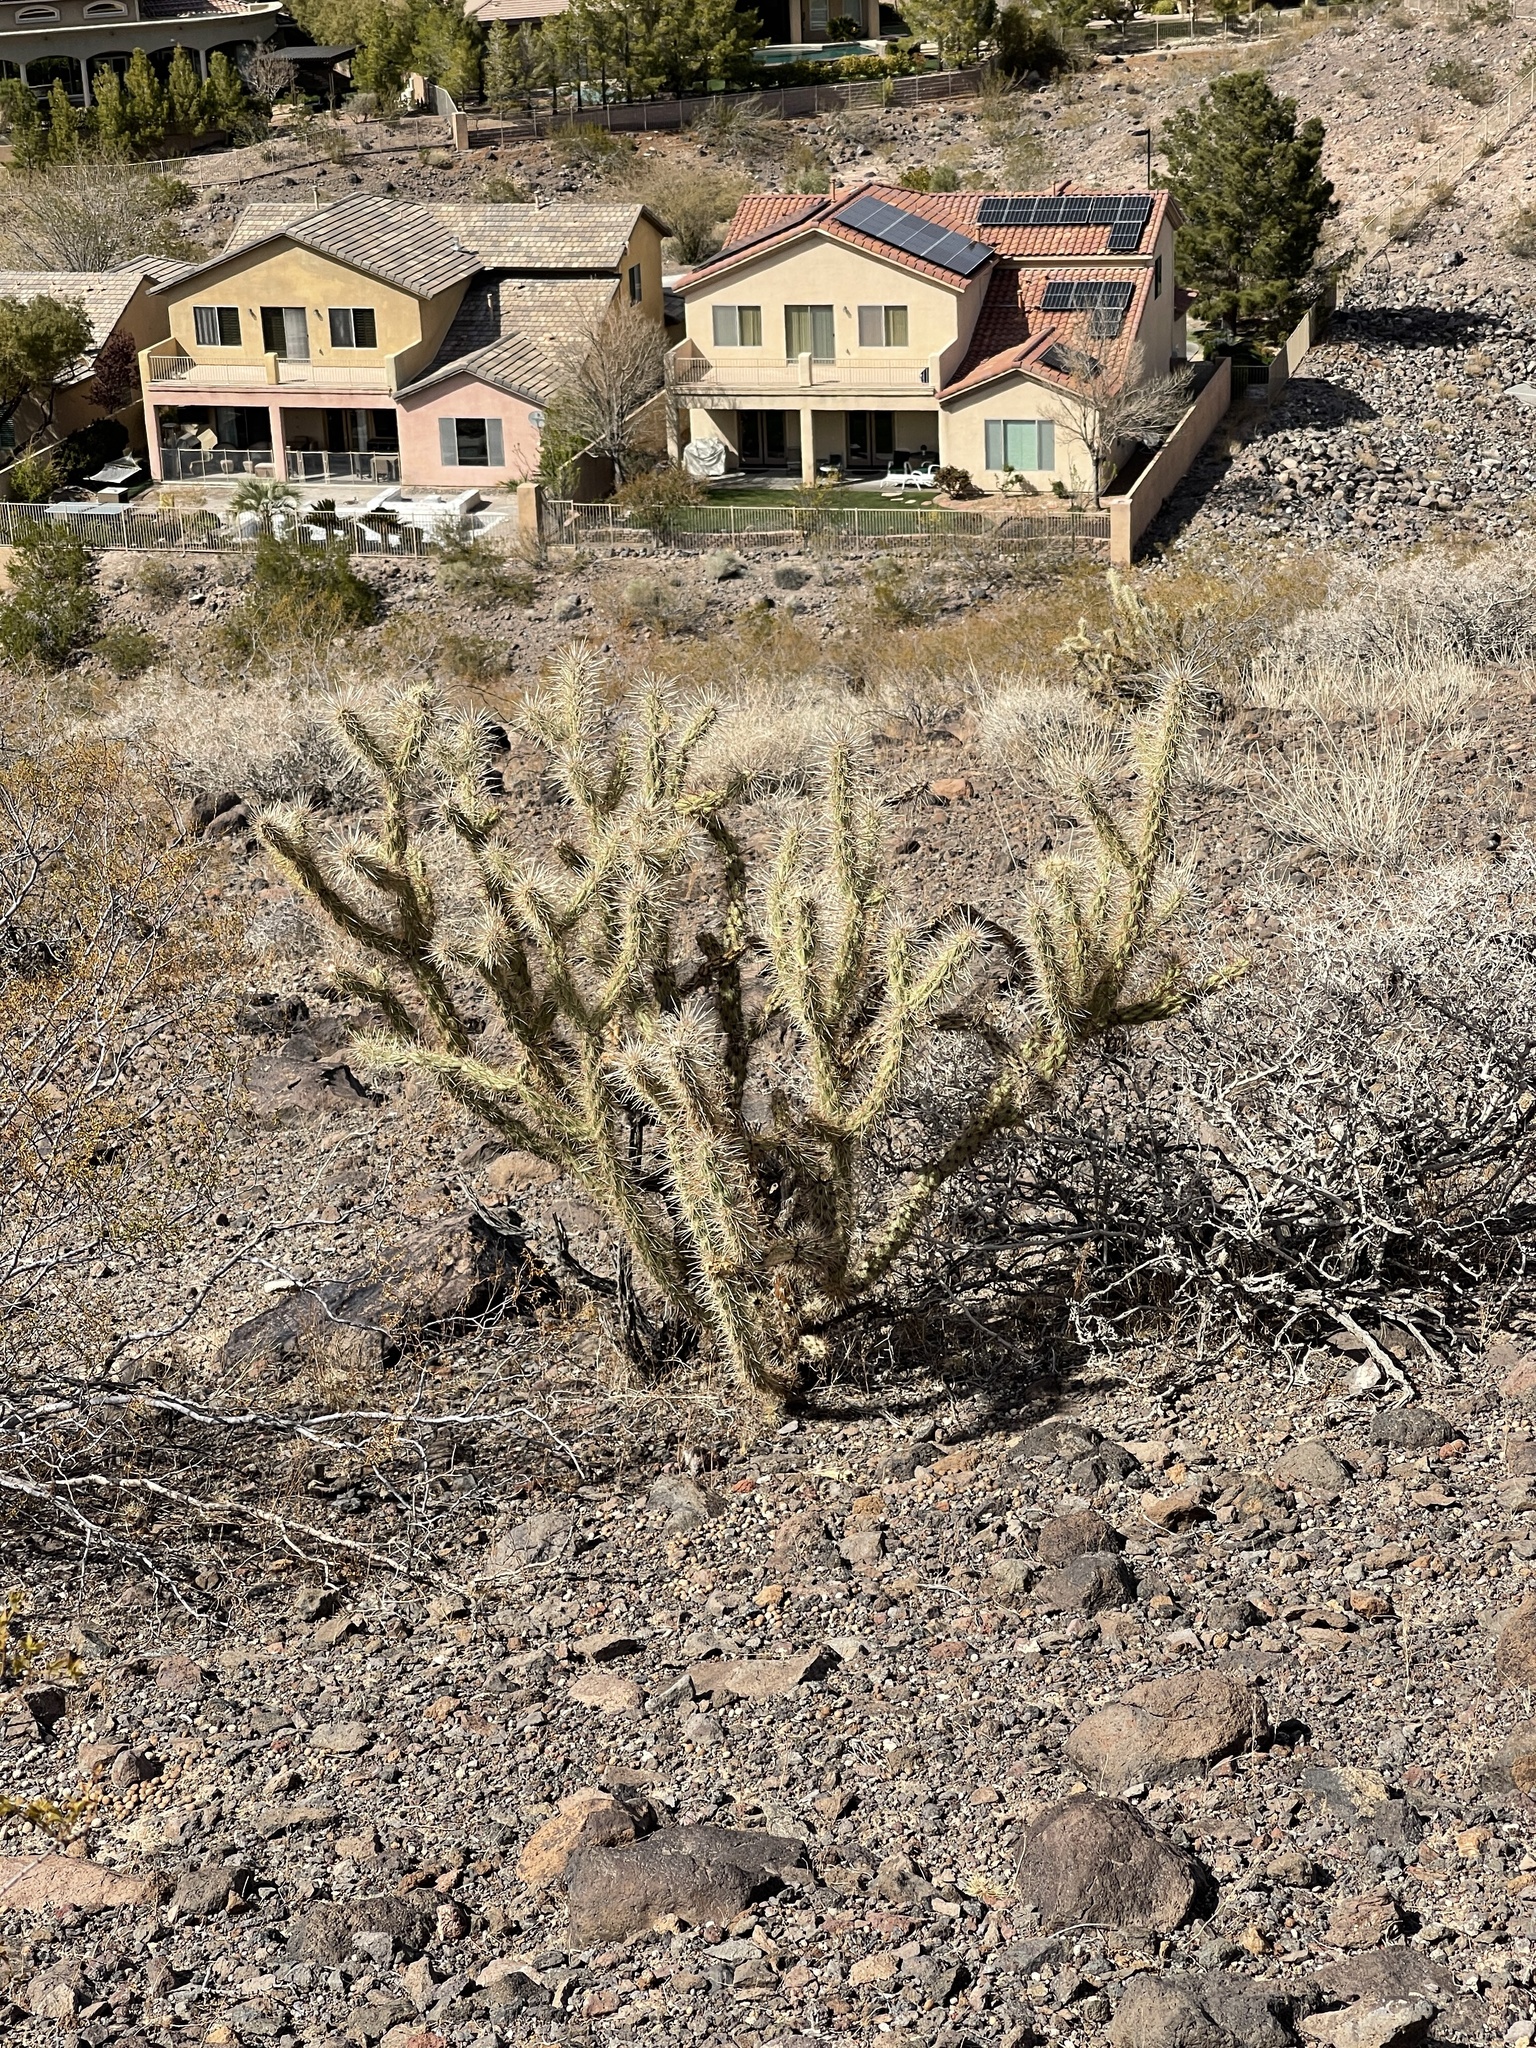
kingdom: Plantae
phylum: Tracheophyta
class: Magnoliopsida
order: Caryophyllales
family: Cactaceae
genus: Cylindropuntia
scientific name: Cylindropuntia acanthocarpa
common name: Buckhorn cholla
